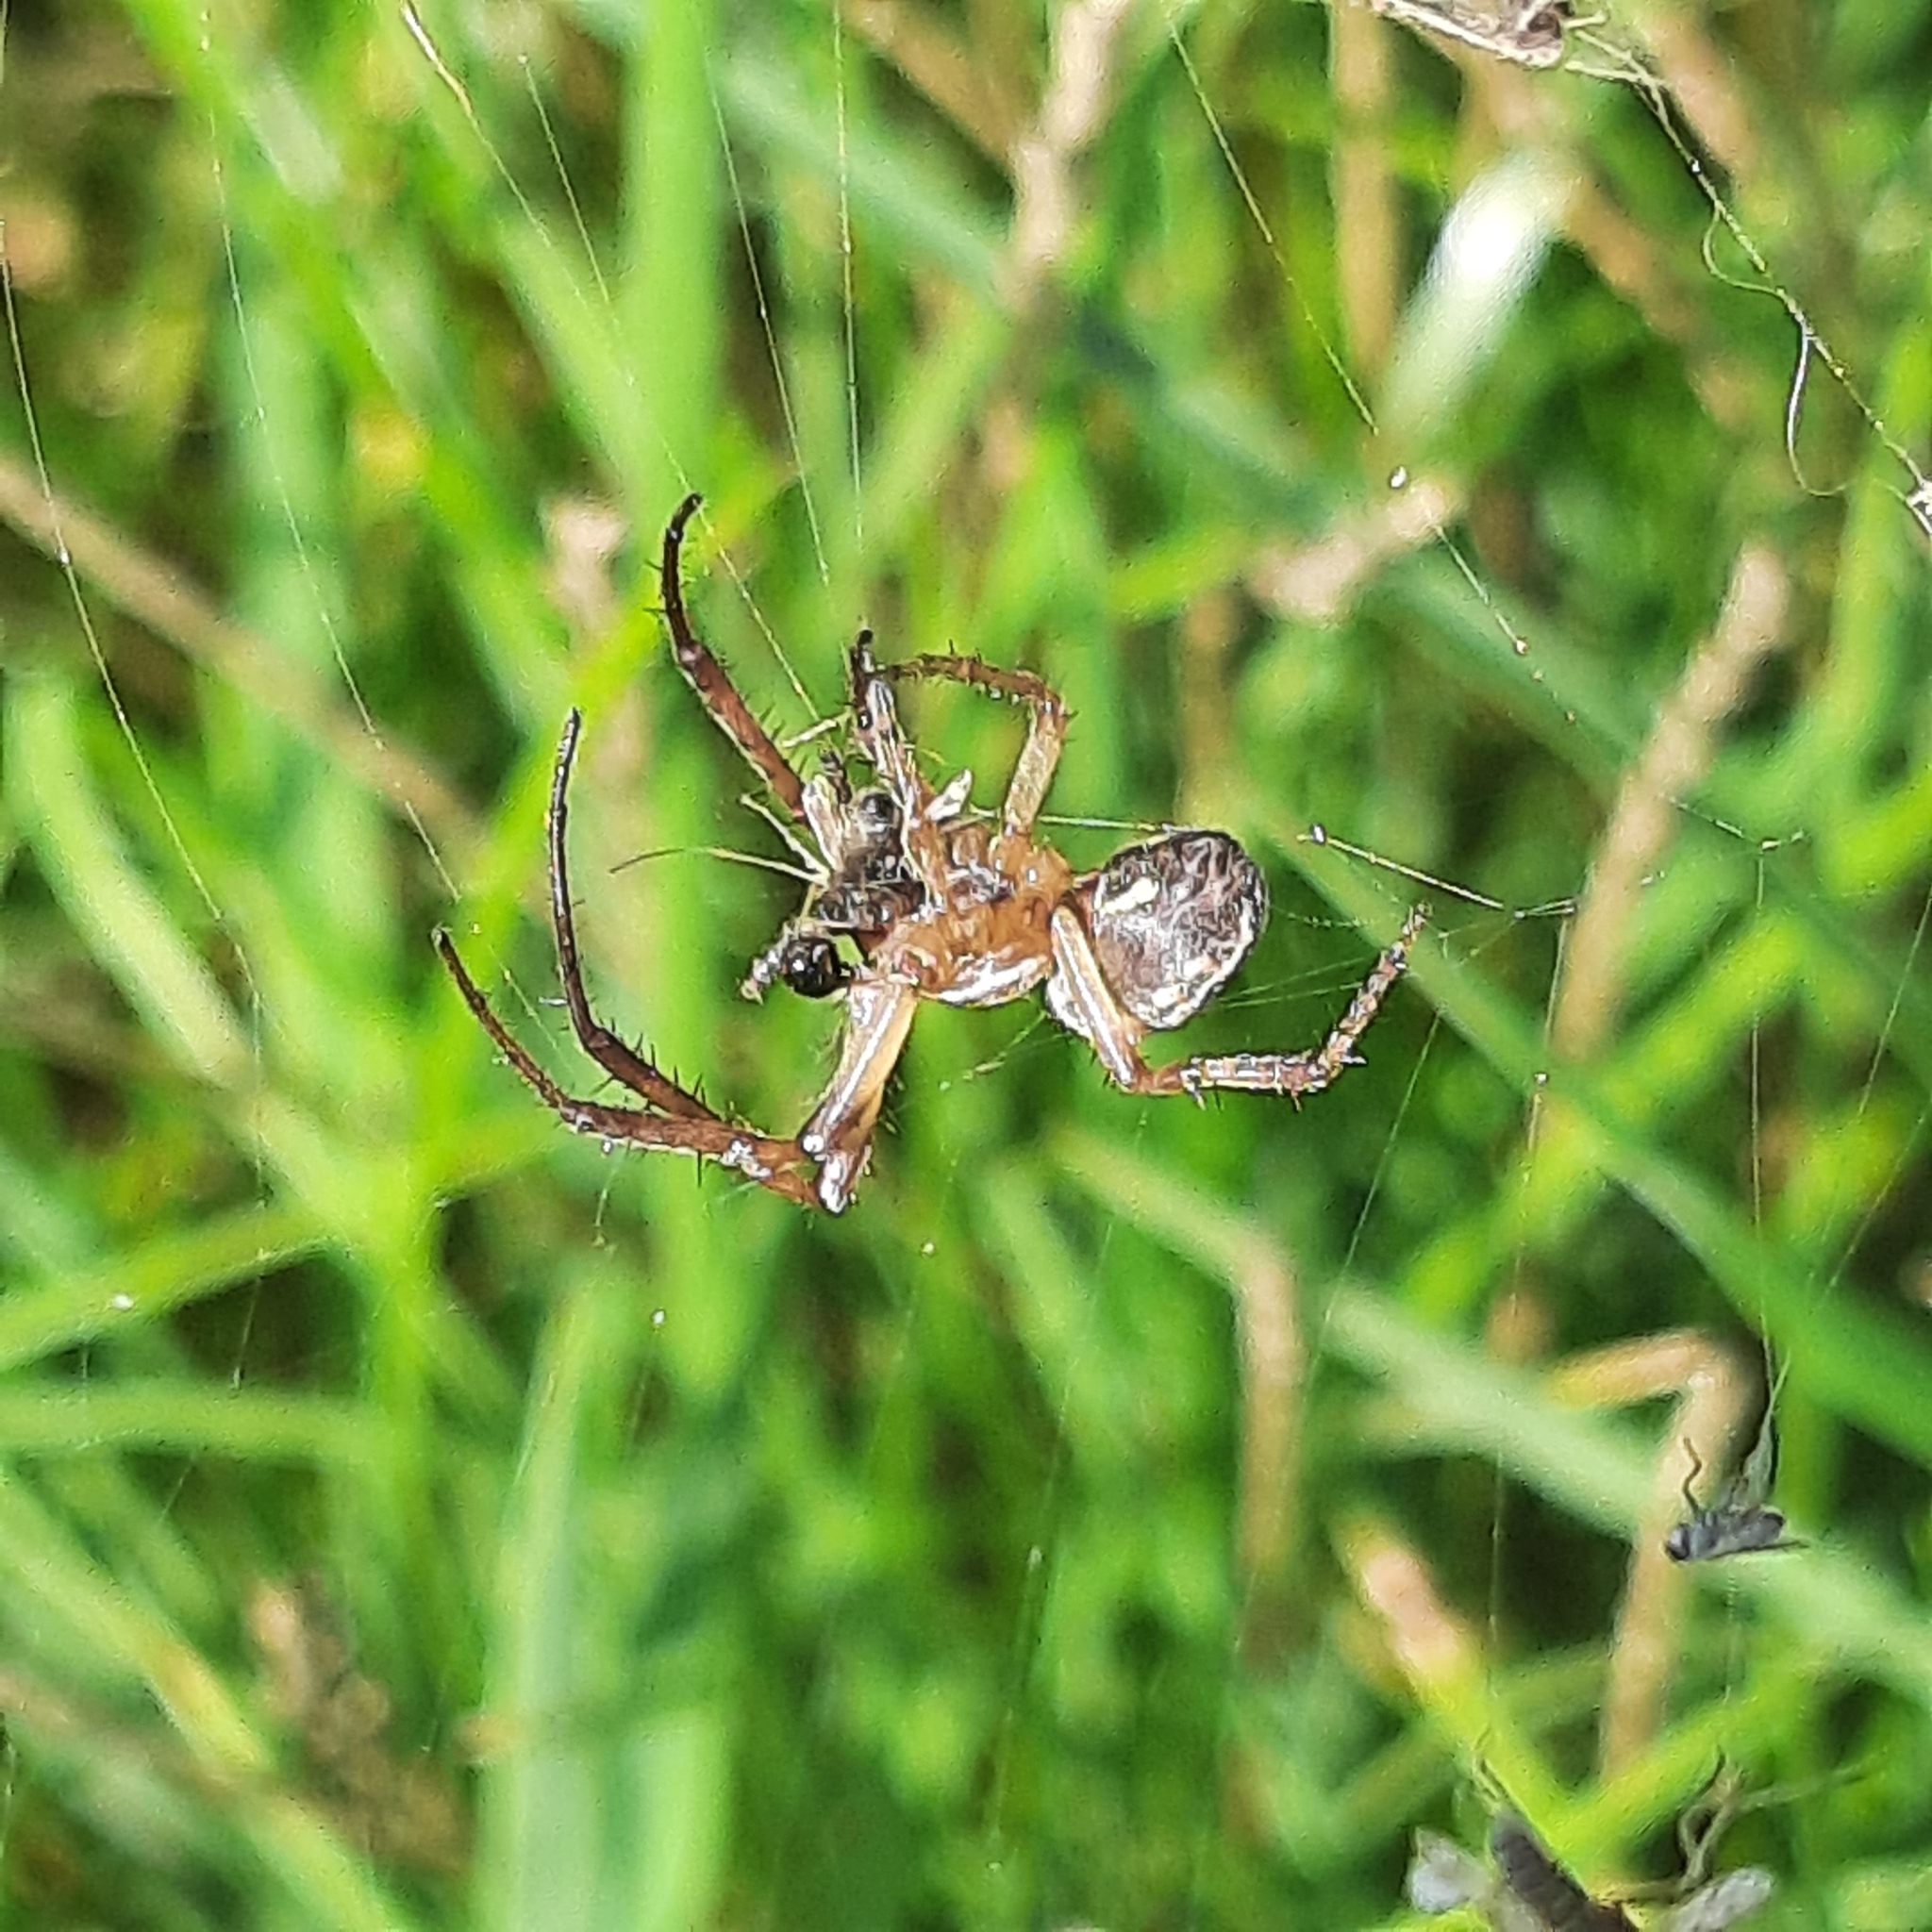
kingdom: Animalia
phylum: Arthropoda
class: Arachnida
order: Araneae
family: Araneidae
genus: Larinioides
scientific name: Larinioides
